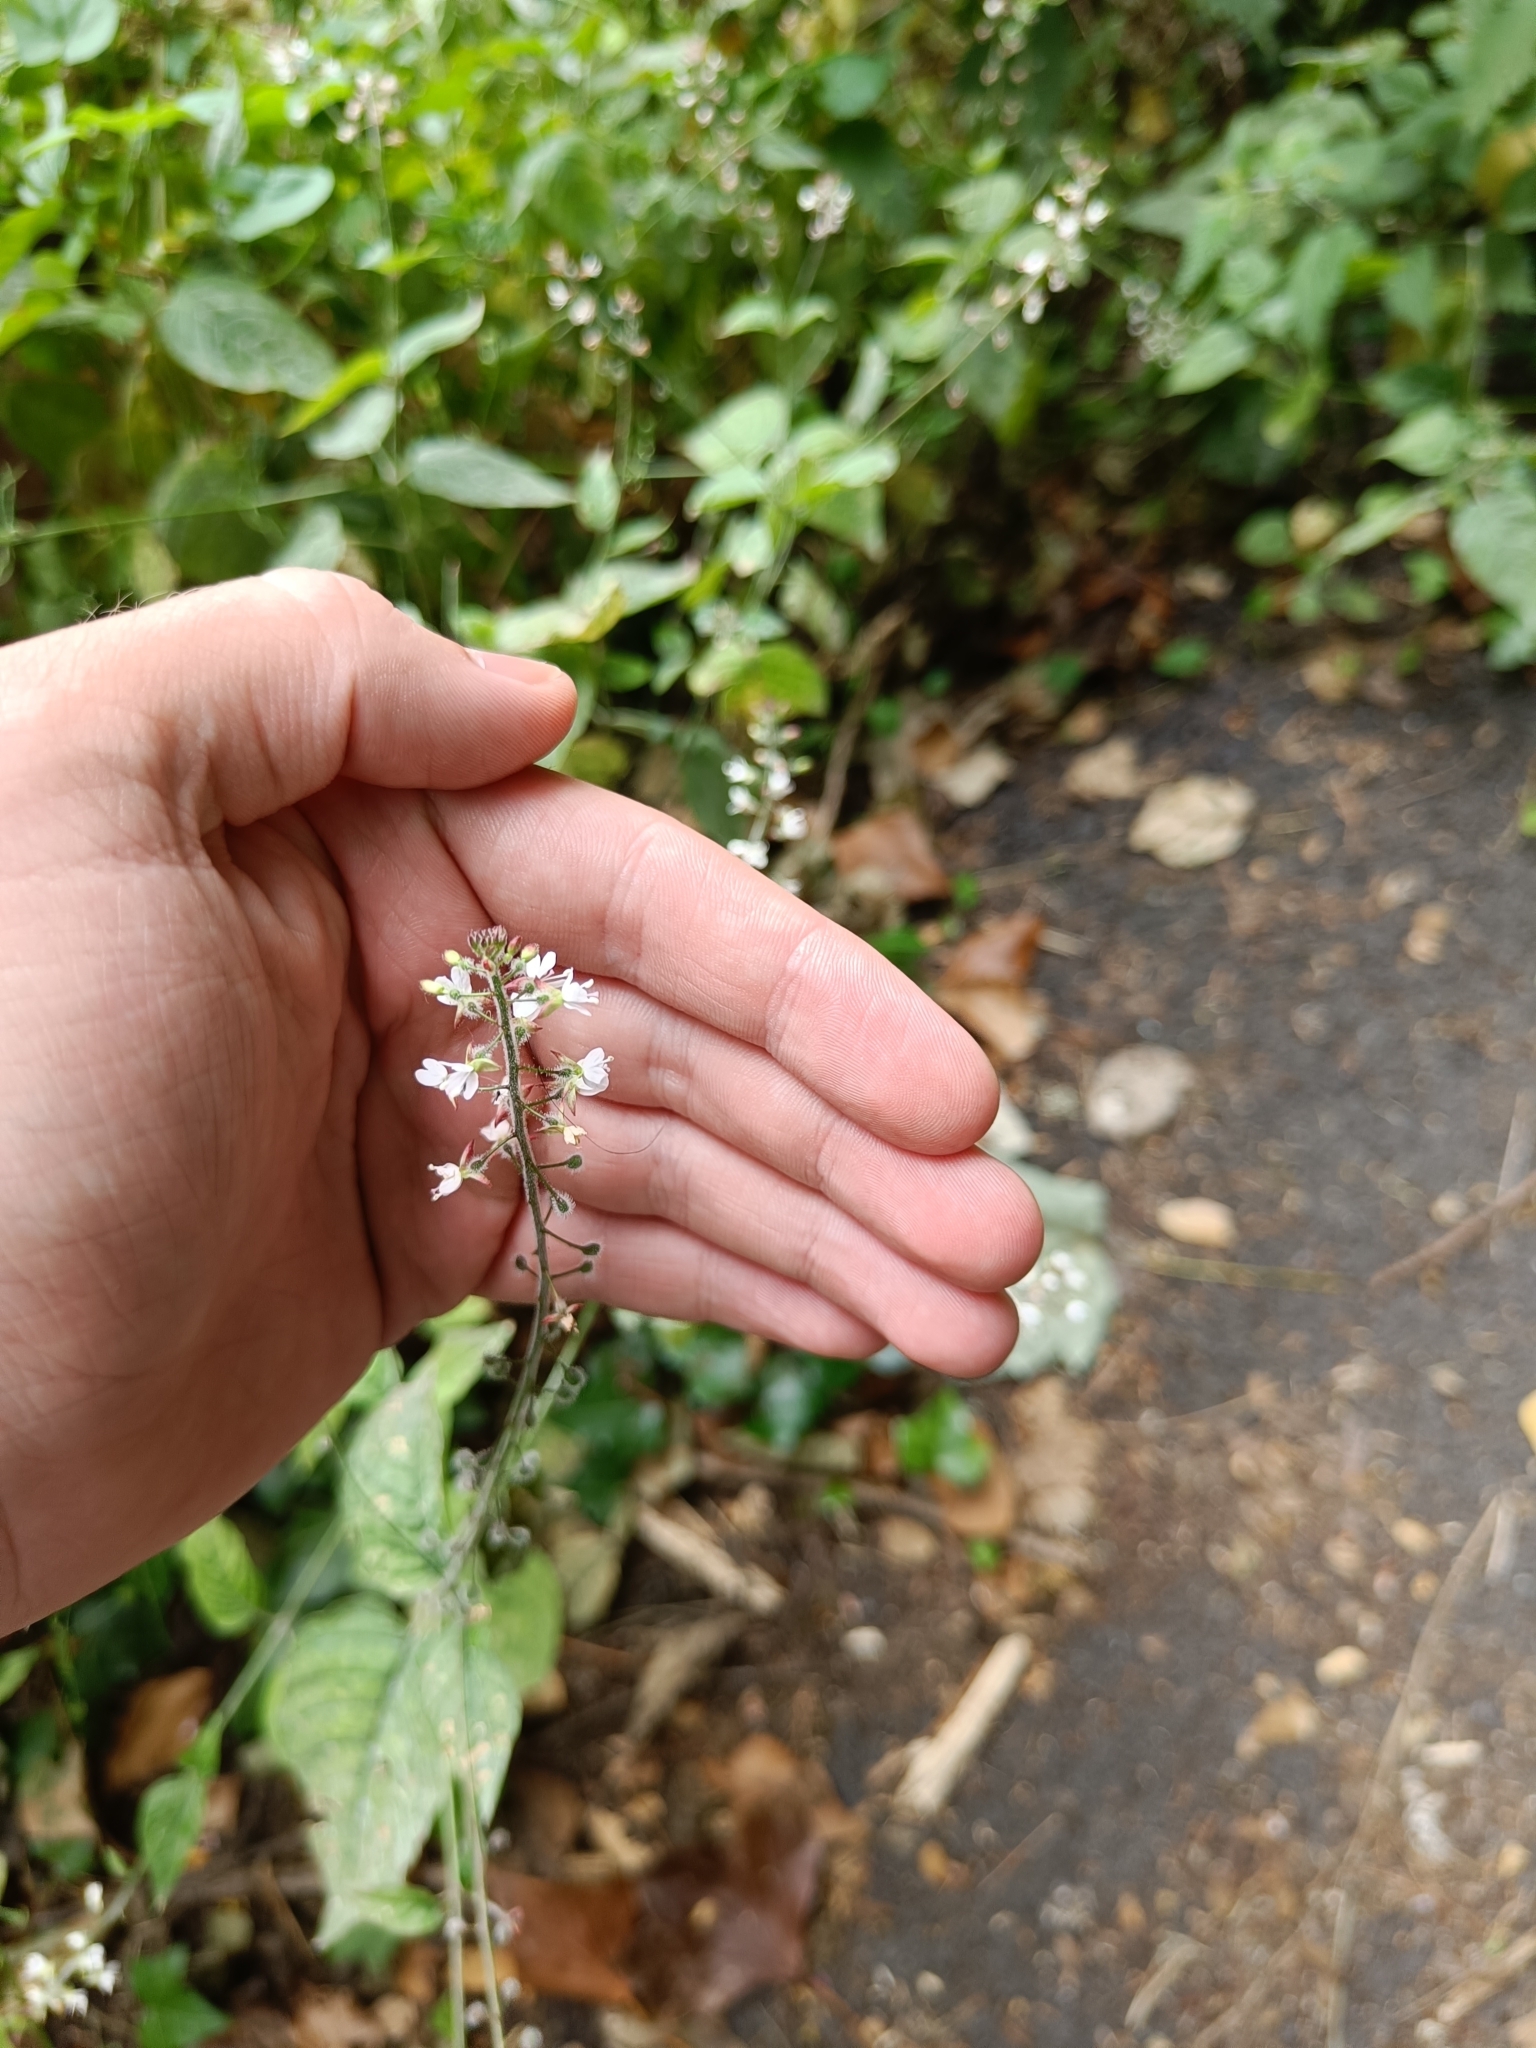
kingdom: Plantae
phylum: Tracheophyta
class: Magnoliopsida
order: Myrtales
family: Onagraceae
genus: Circaea
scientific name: Circaea lutetiana
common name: Enchanter's-nightshade
